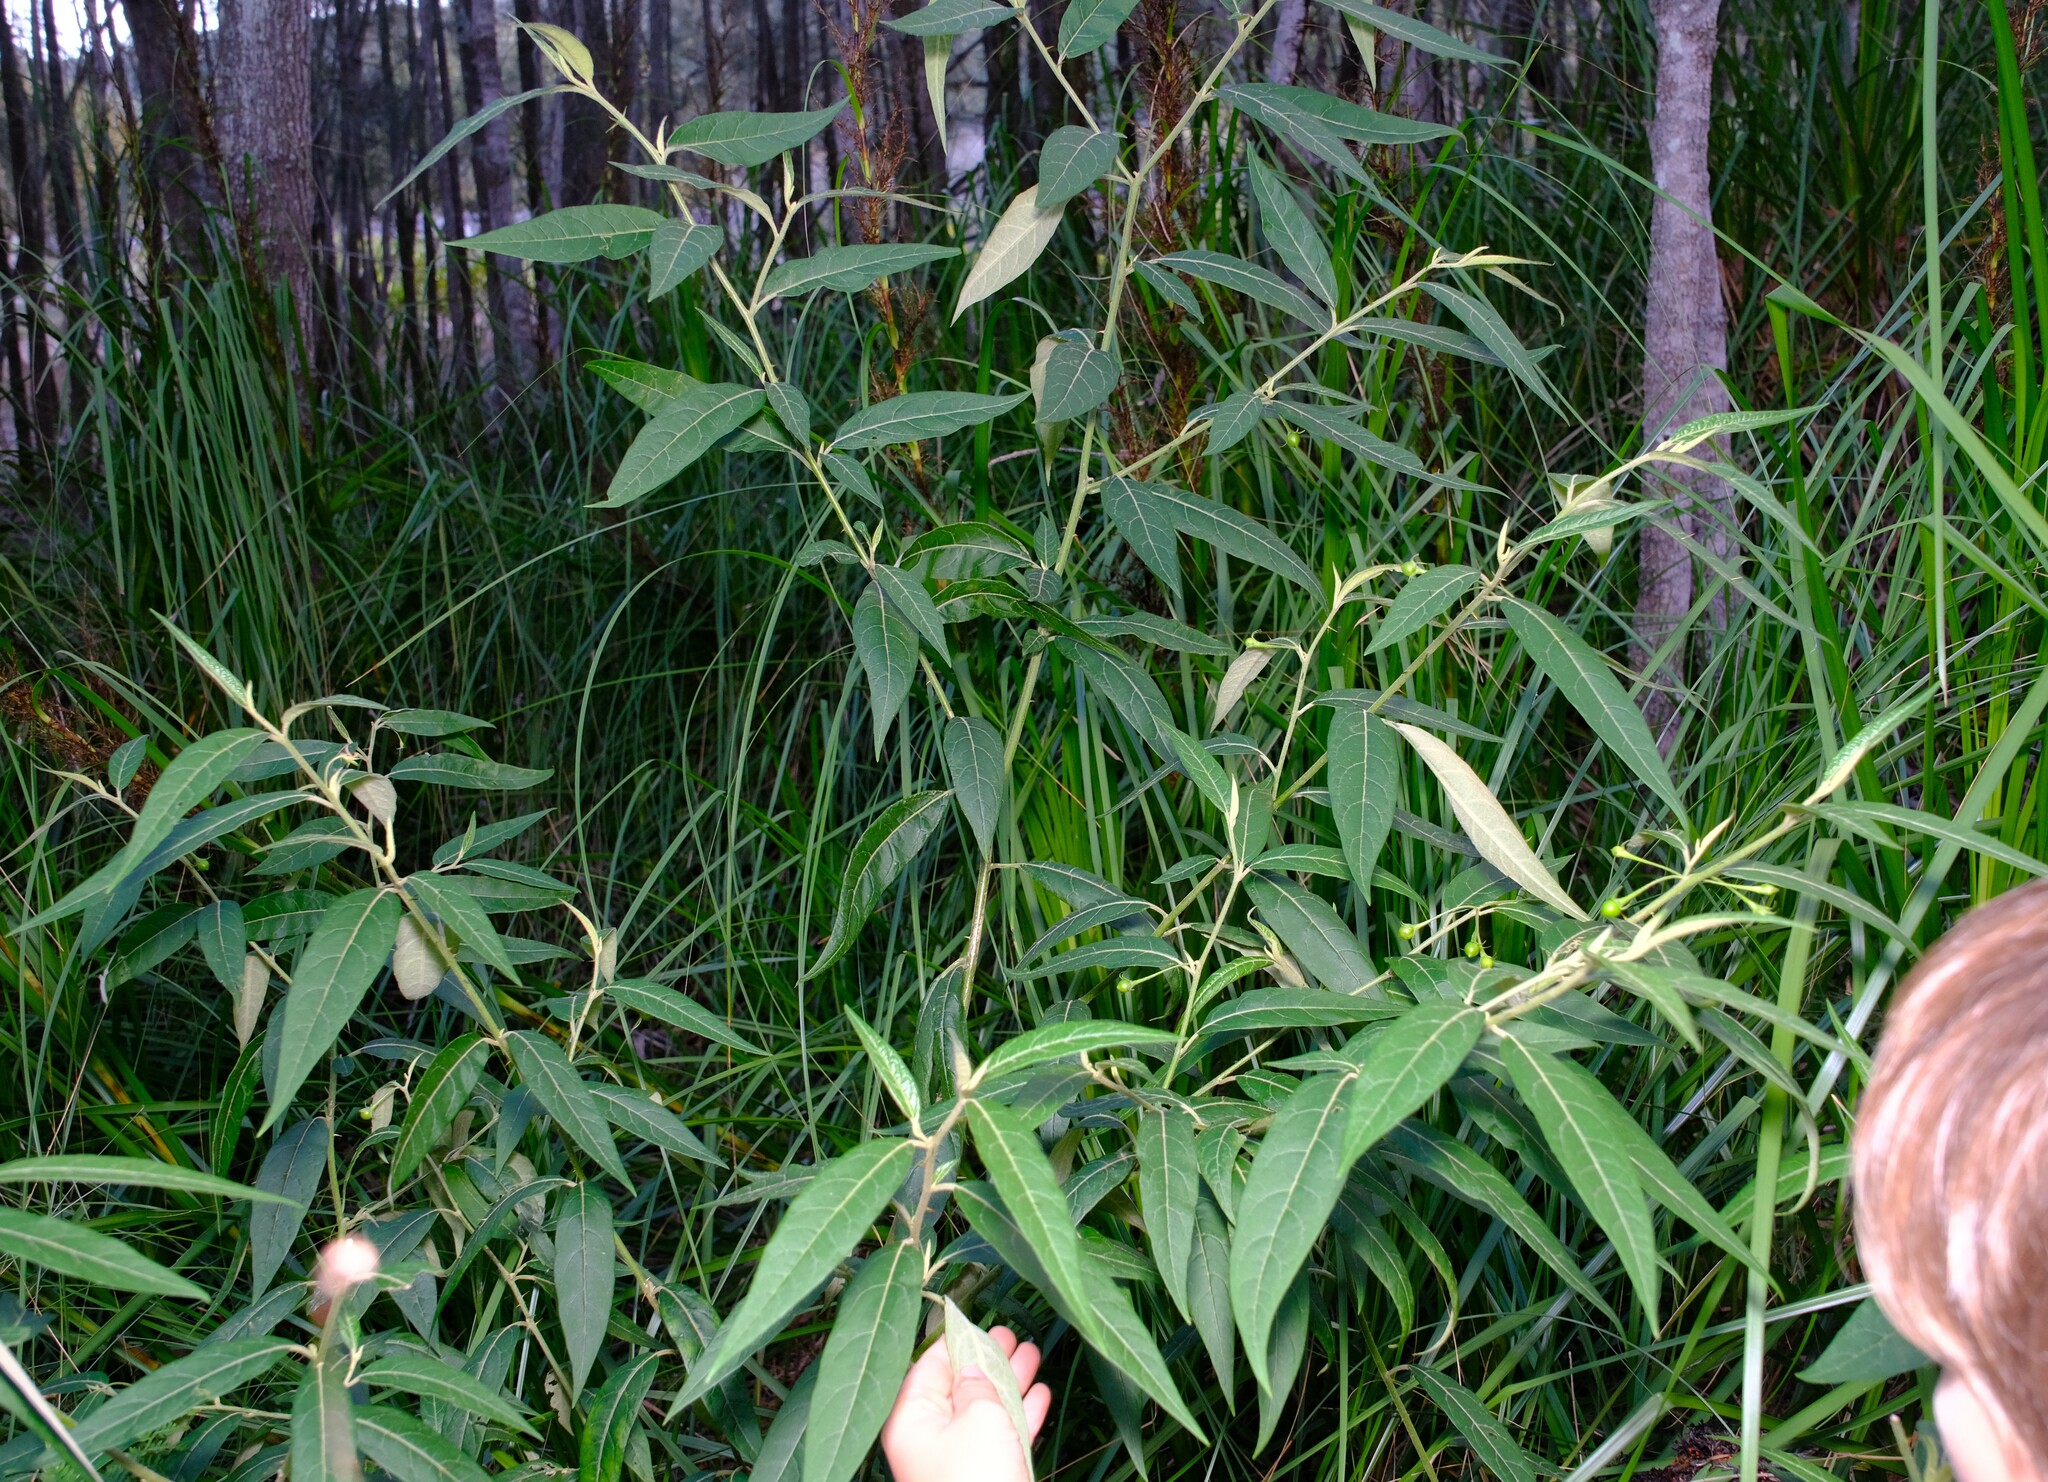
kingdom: Plantae
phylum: Tracheophyta
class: Magnoliopsida
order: Solanales
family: Solanaceae
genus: Solanum
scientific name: Solanum stelligerum
